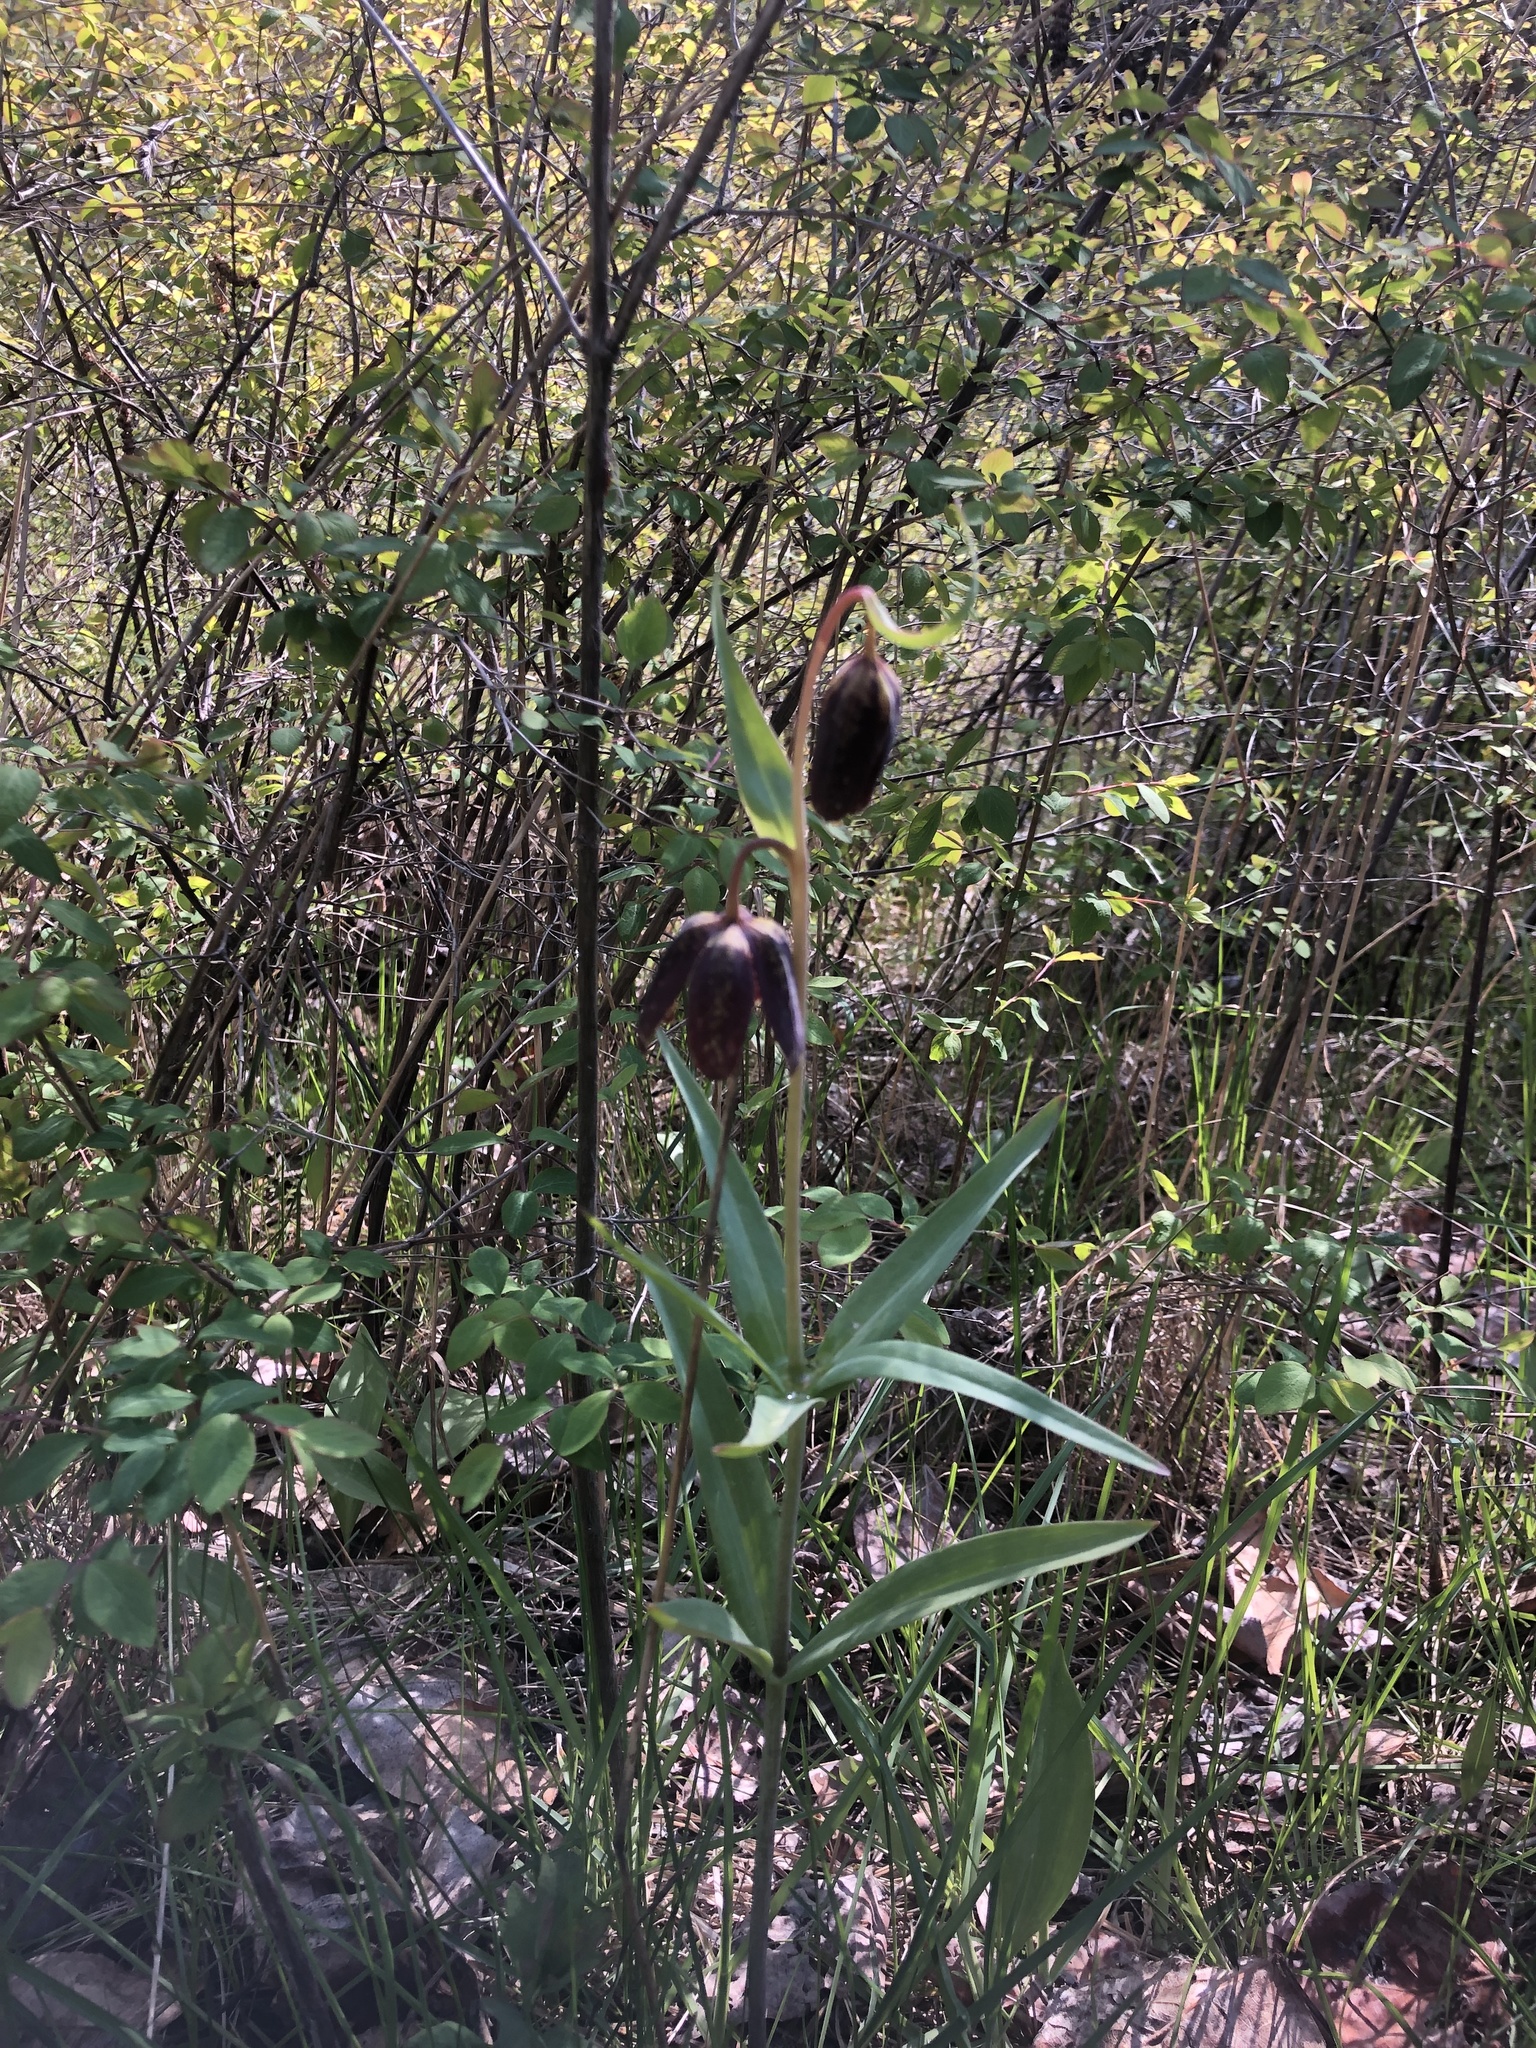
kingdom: Plantae
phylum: Tracheophyta
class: Liliopsida
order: Liliales
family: Liliaceae
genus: Fritillaria
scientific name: Fritillaria affinis
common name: Ojai fritillary
